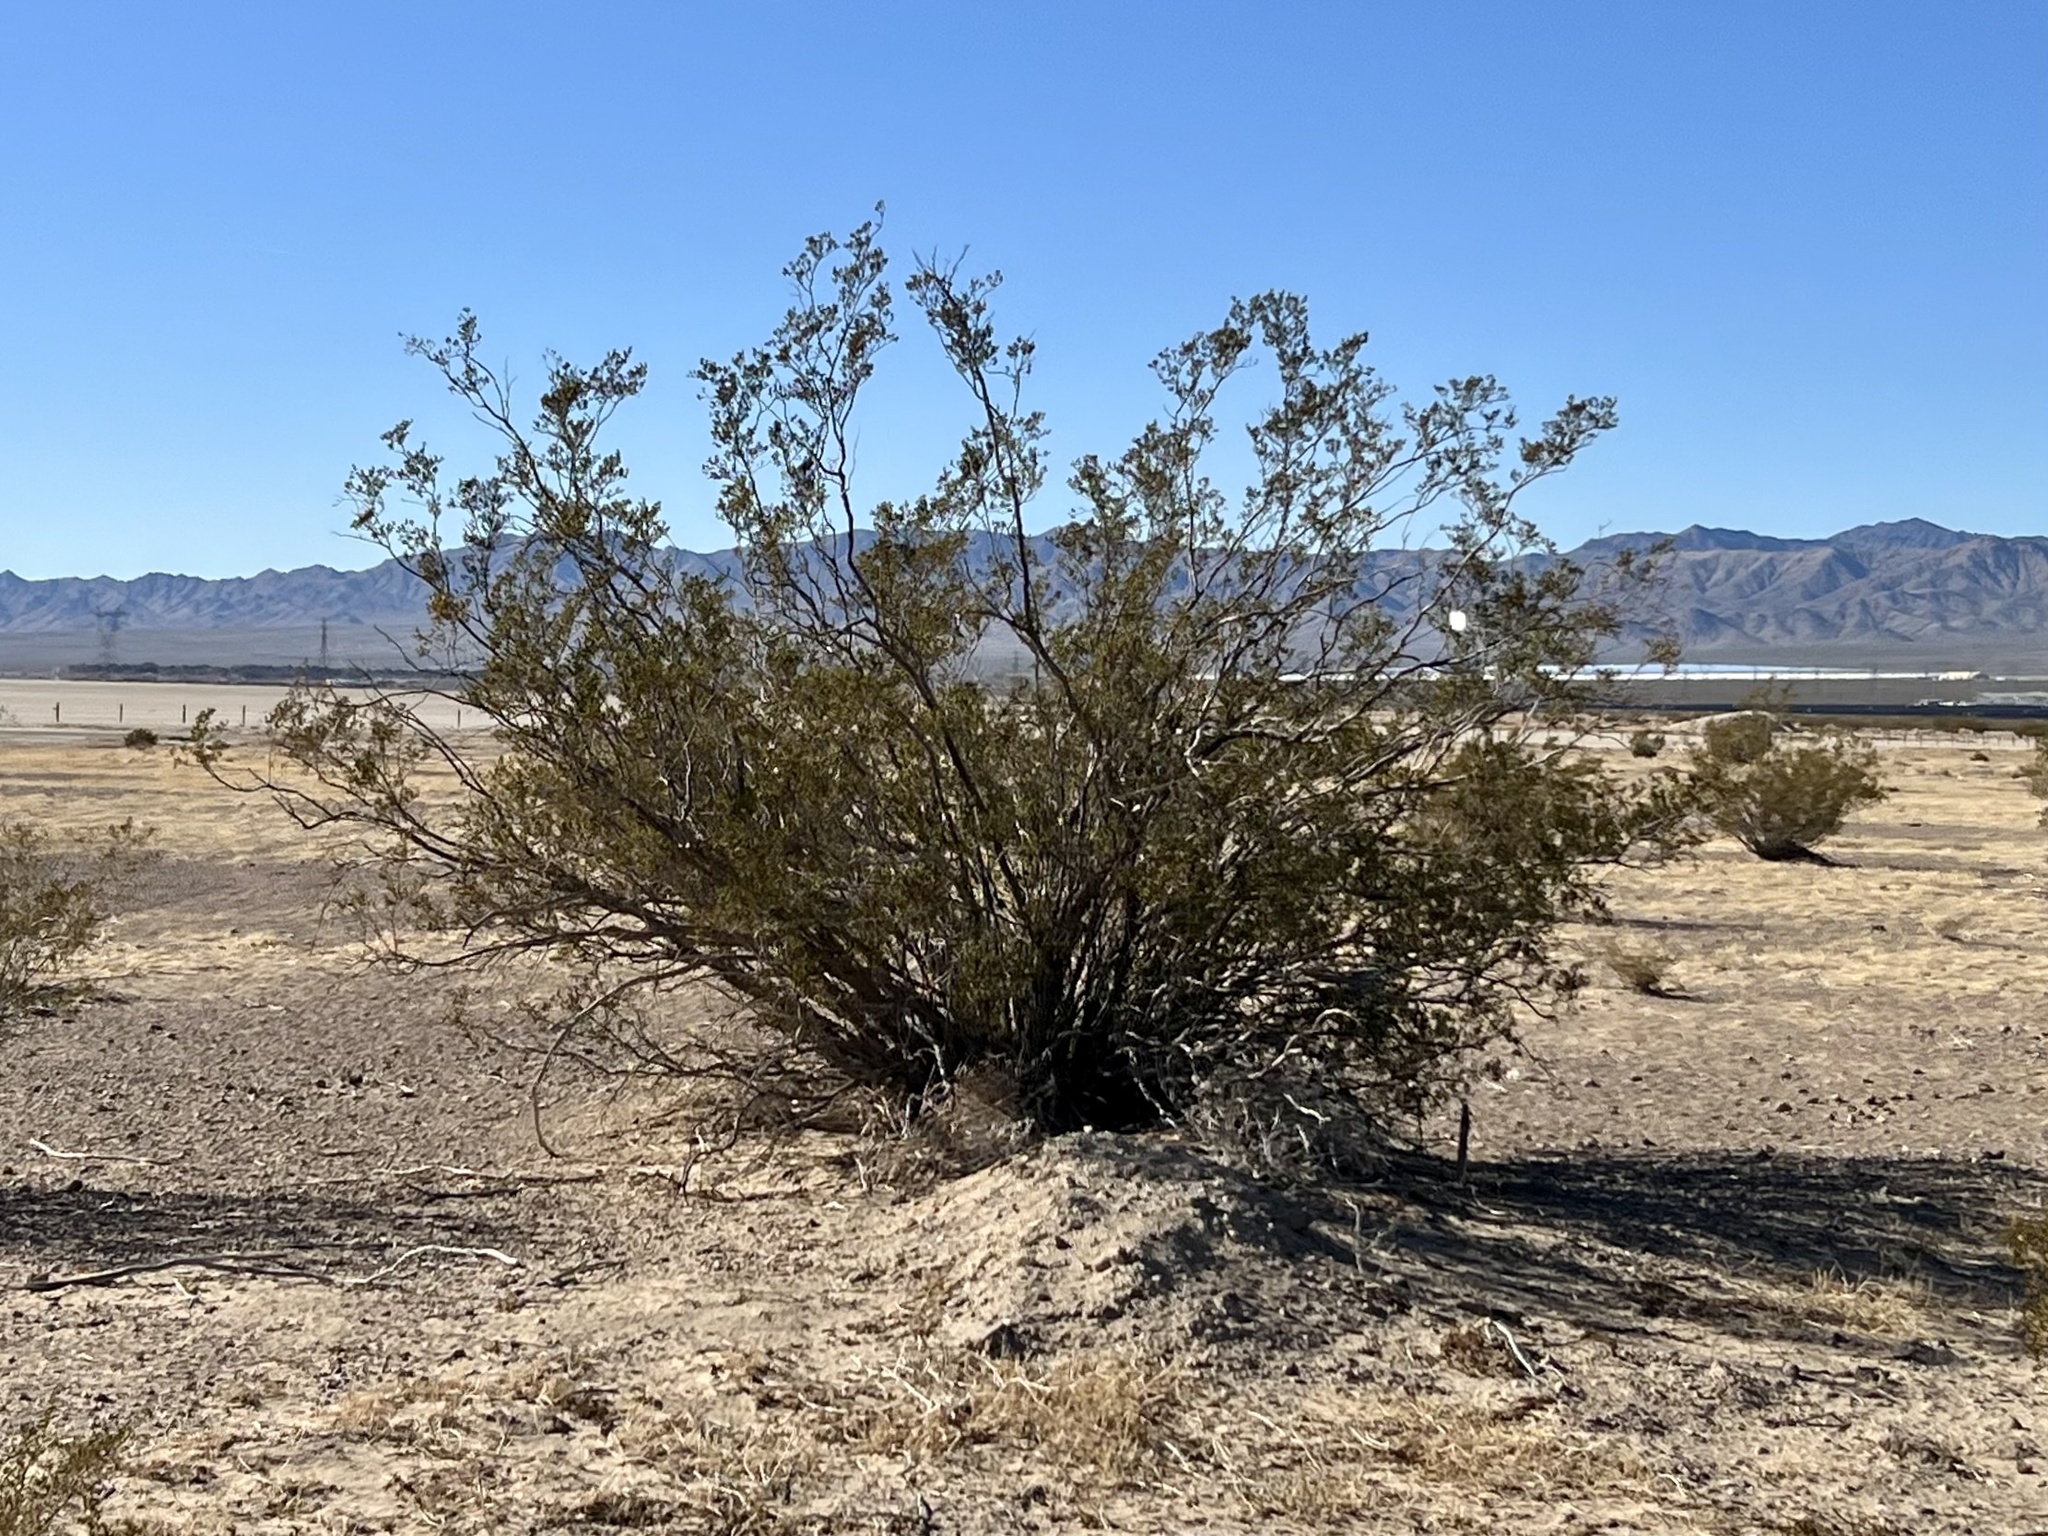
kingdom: Plantae
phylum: Tracheophyta
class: Magnoliopsida
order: Zygophyllales
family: Zygophyllaceae
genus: Larrea
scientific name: Larrea tridentata
